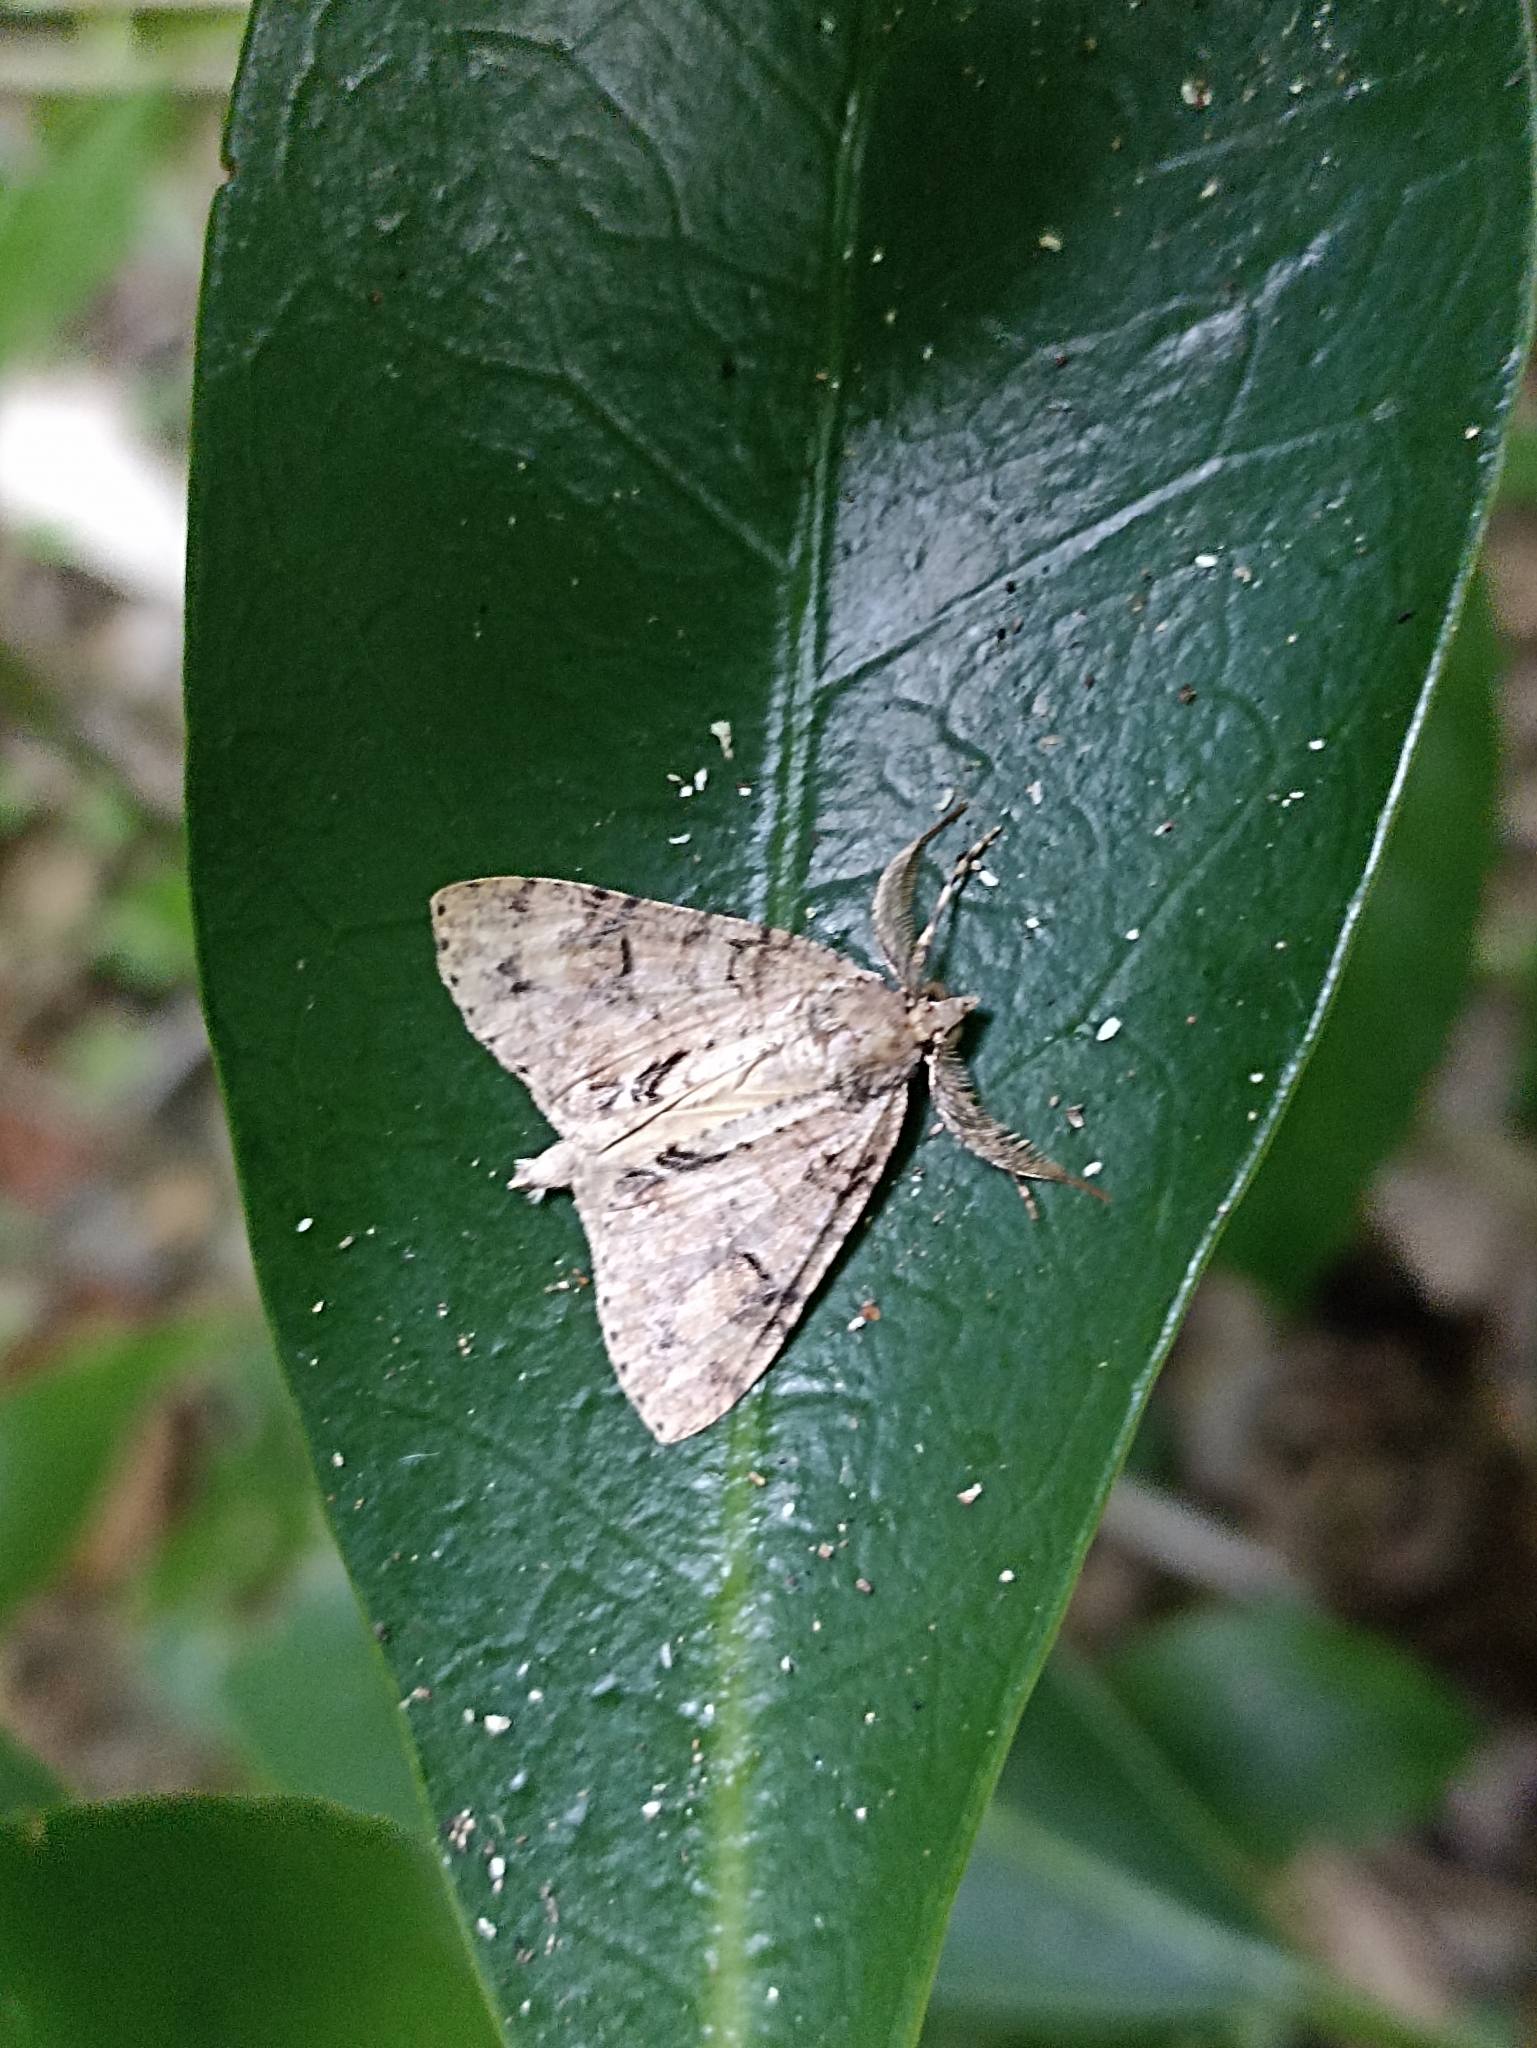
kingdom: Animalia
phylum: Arthropoda
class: Insecta
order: Lepidoptera
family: Geometridae
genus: Pseudocoremia
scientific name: Pseudocoremia suavis
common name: Common forest looper
